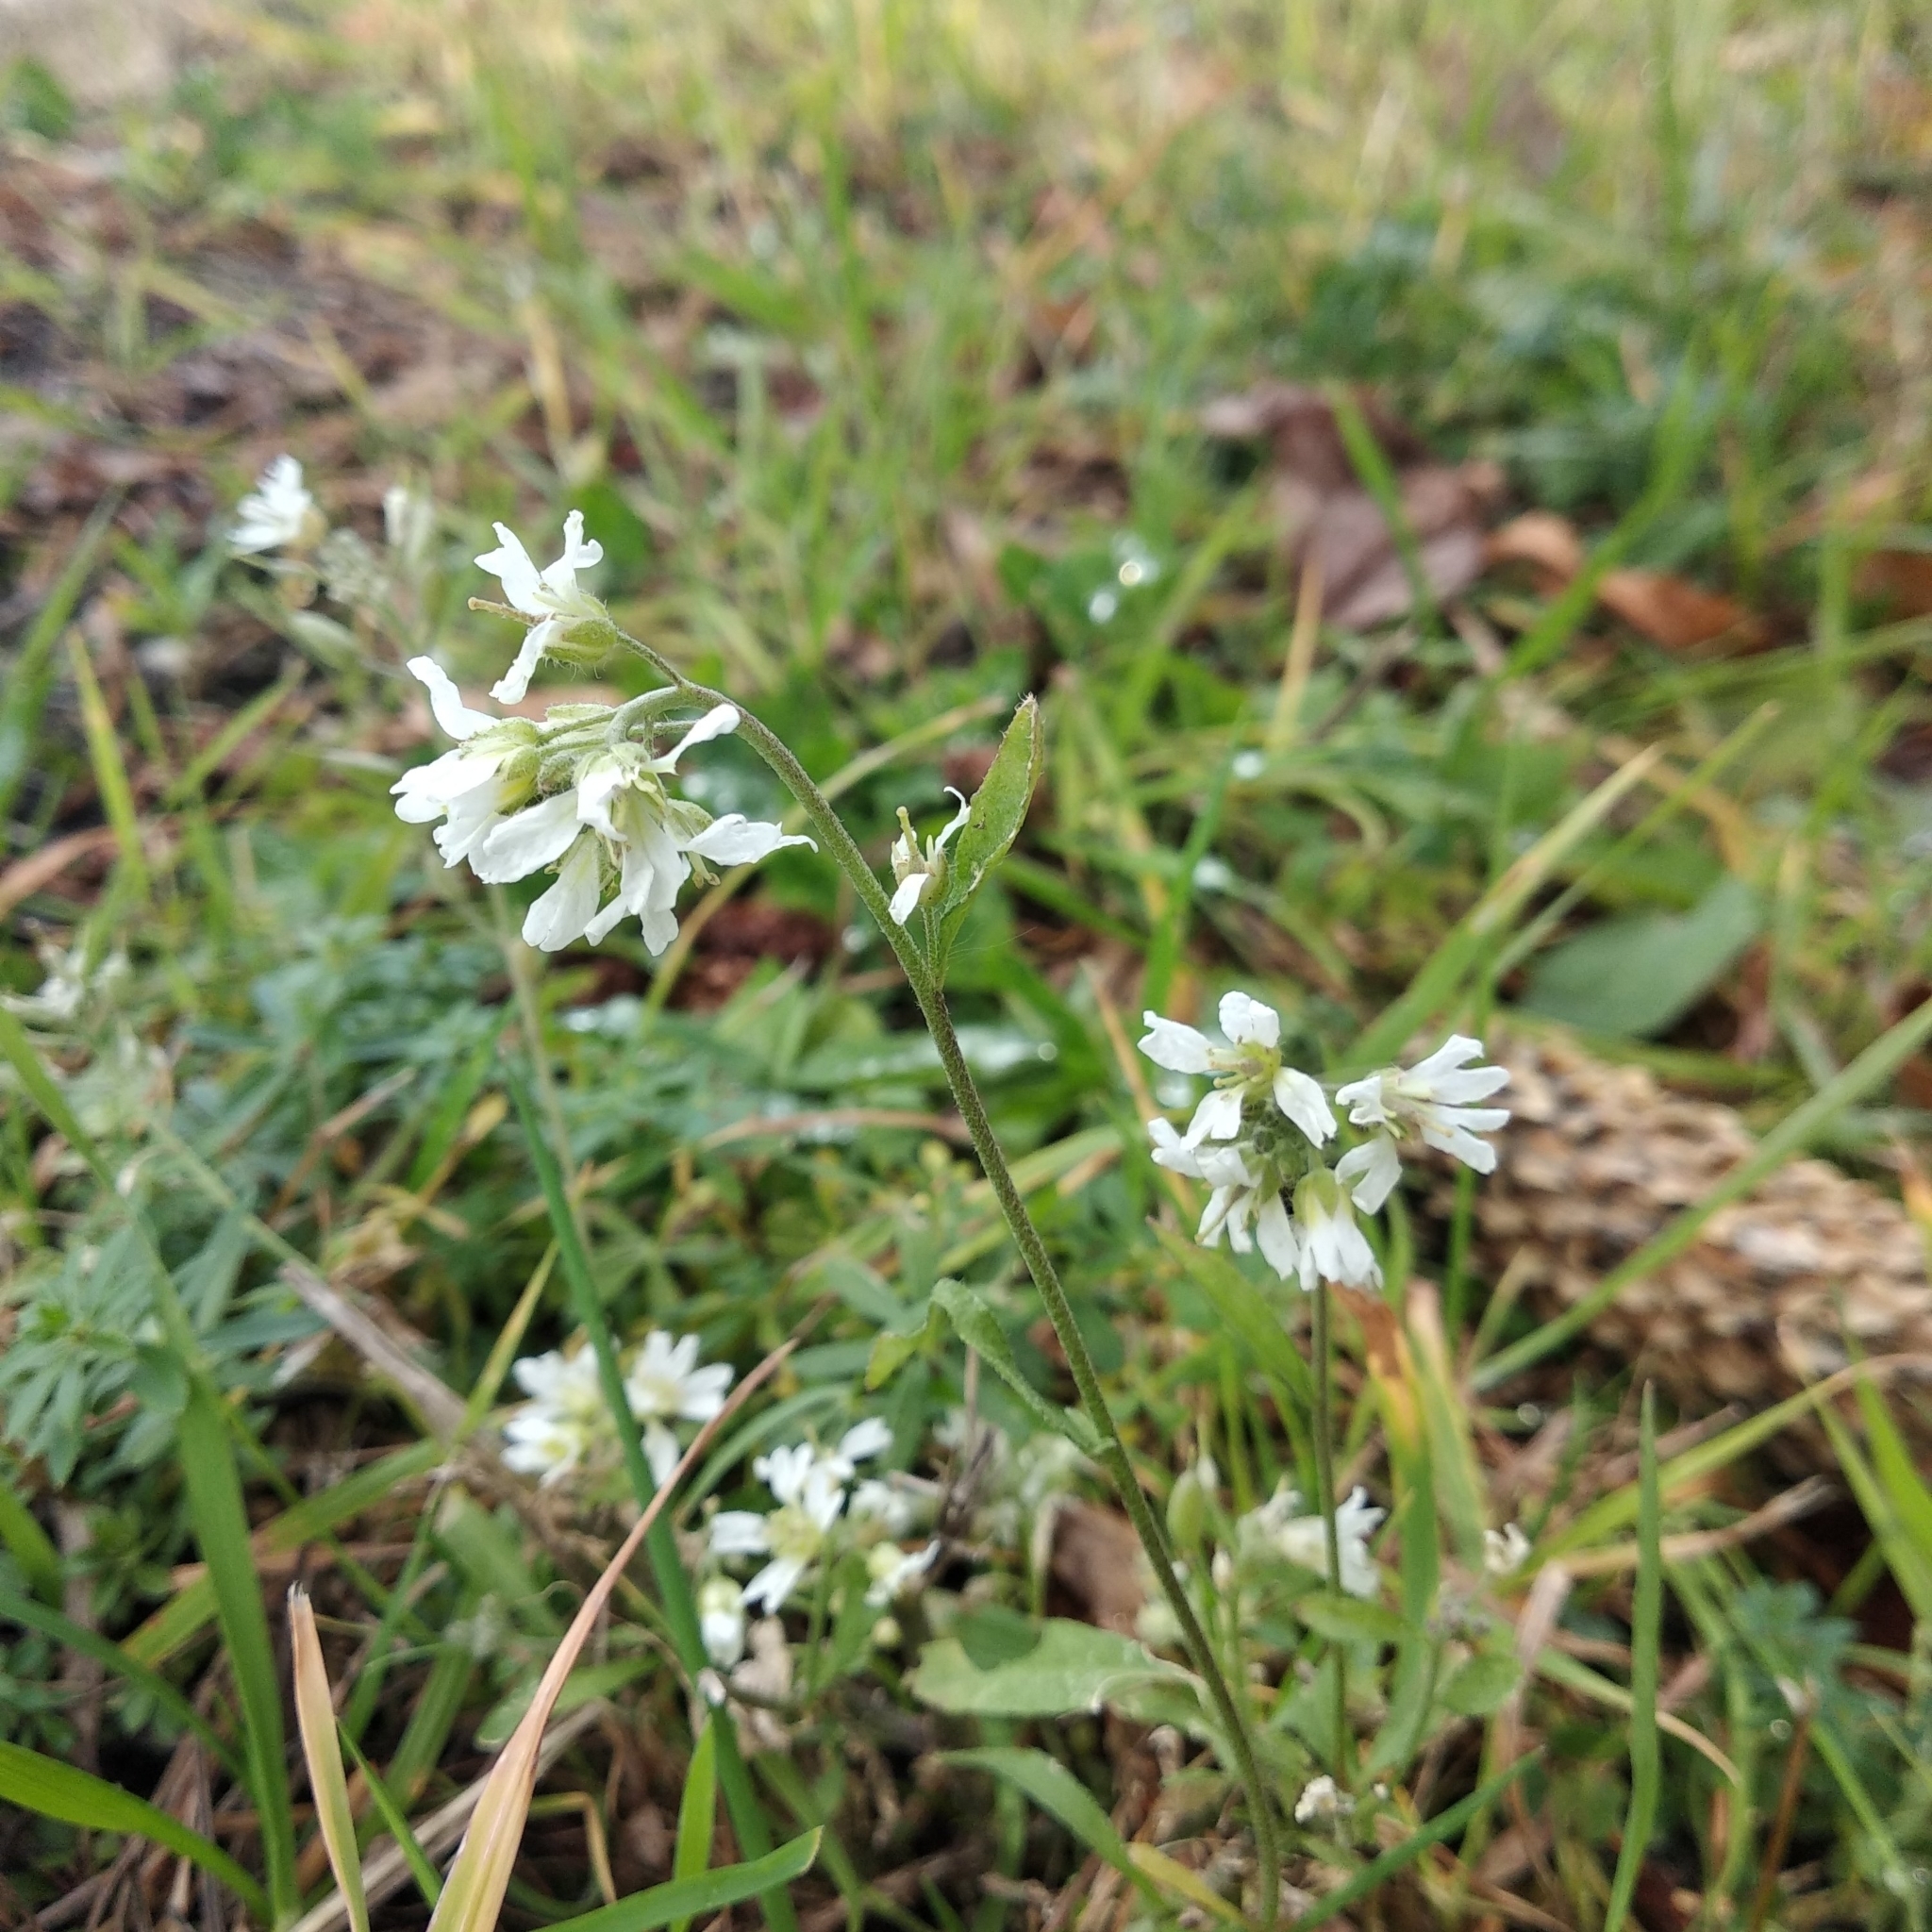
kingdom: Plantae
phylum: Tracheophyta
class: Magnoliopsida
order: Brassicales
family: Brassicaceae
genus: Berteroa
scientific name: Berteroa incana
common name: Hoary alison
